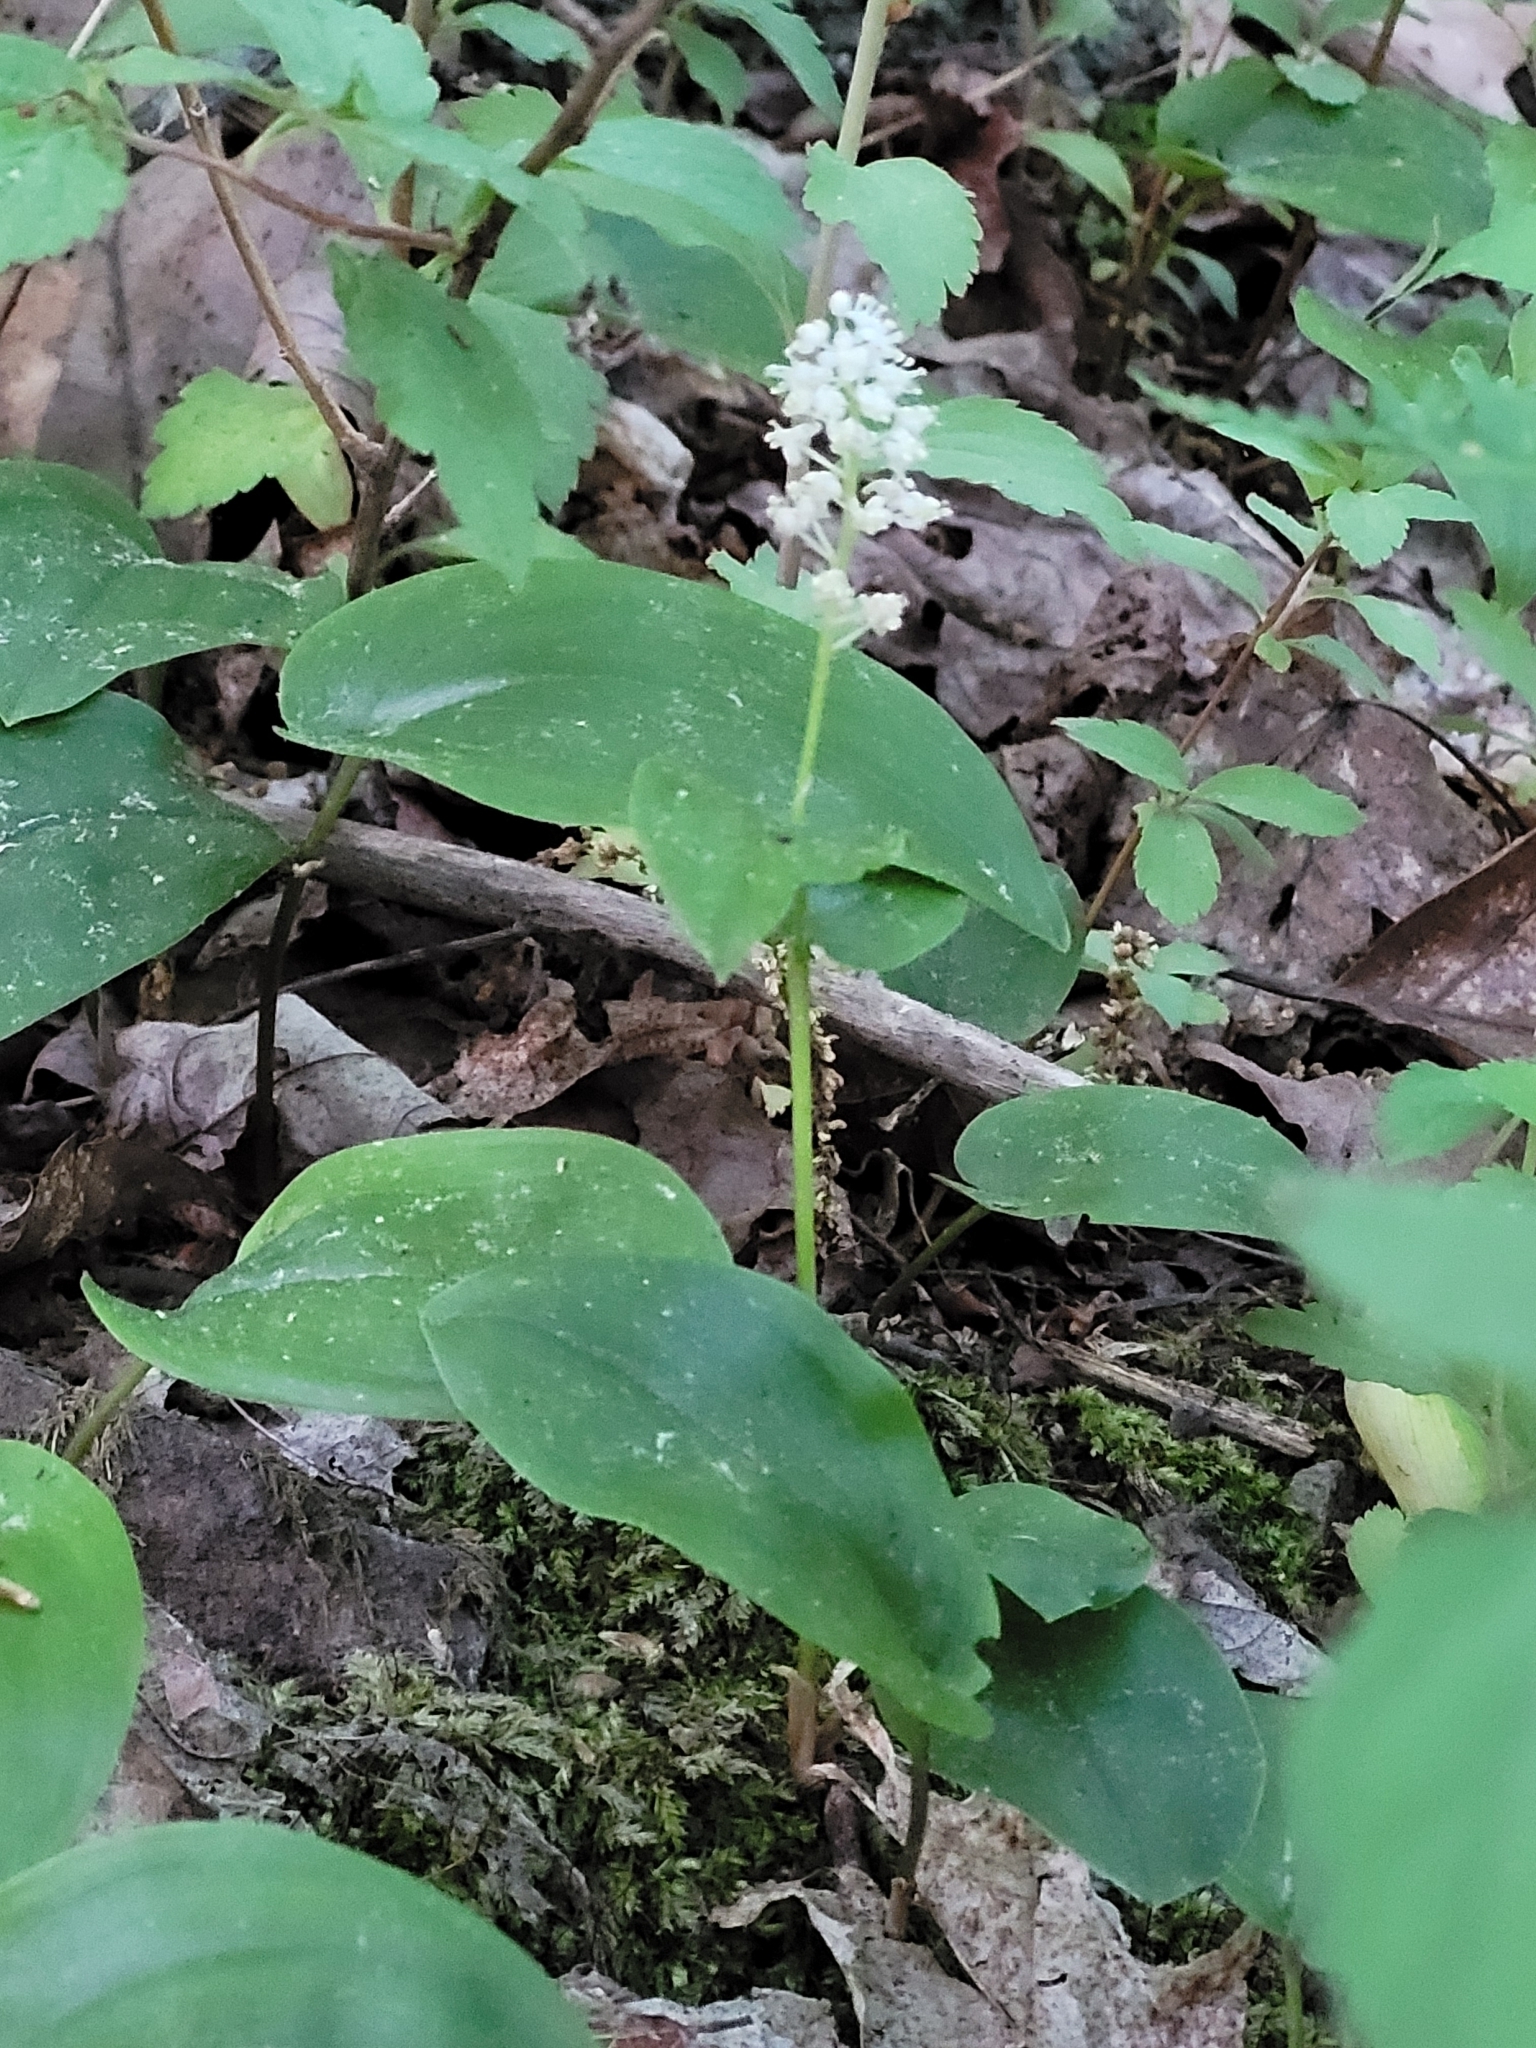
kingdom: Plantae
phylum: Tracheophyta
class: Liliopsida
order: Asparagales
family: Asparagaceae
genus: Maianthemum
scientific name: Maianthemum canadense
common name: False lily-of-the-valley
